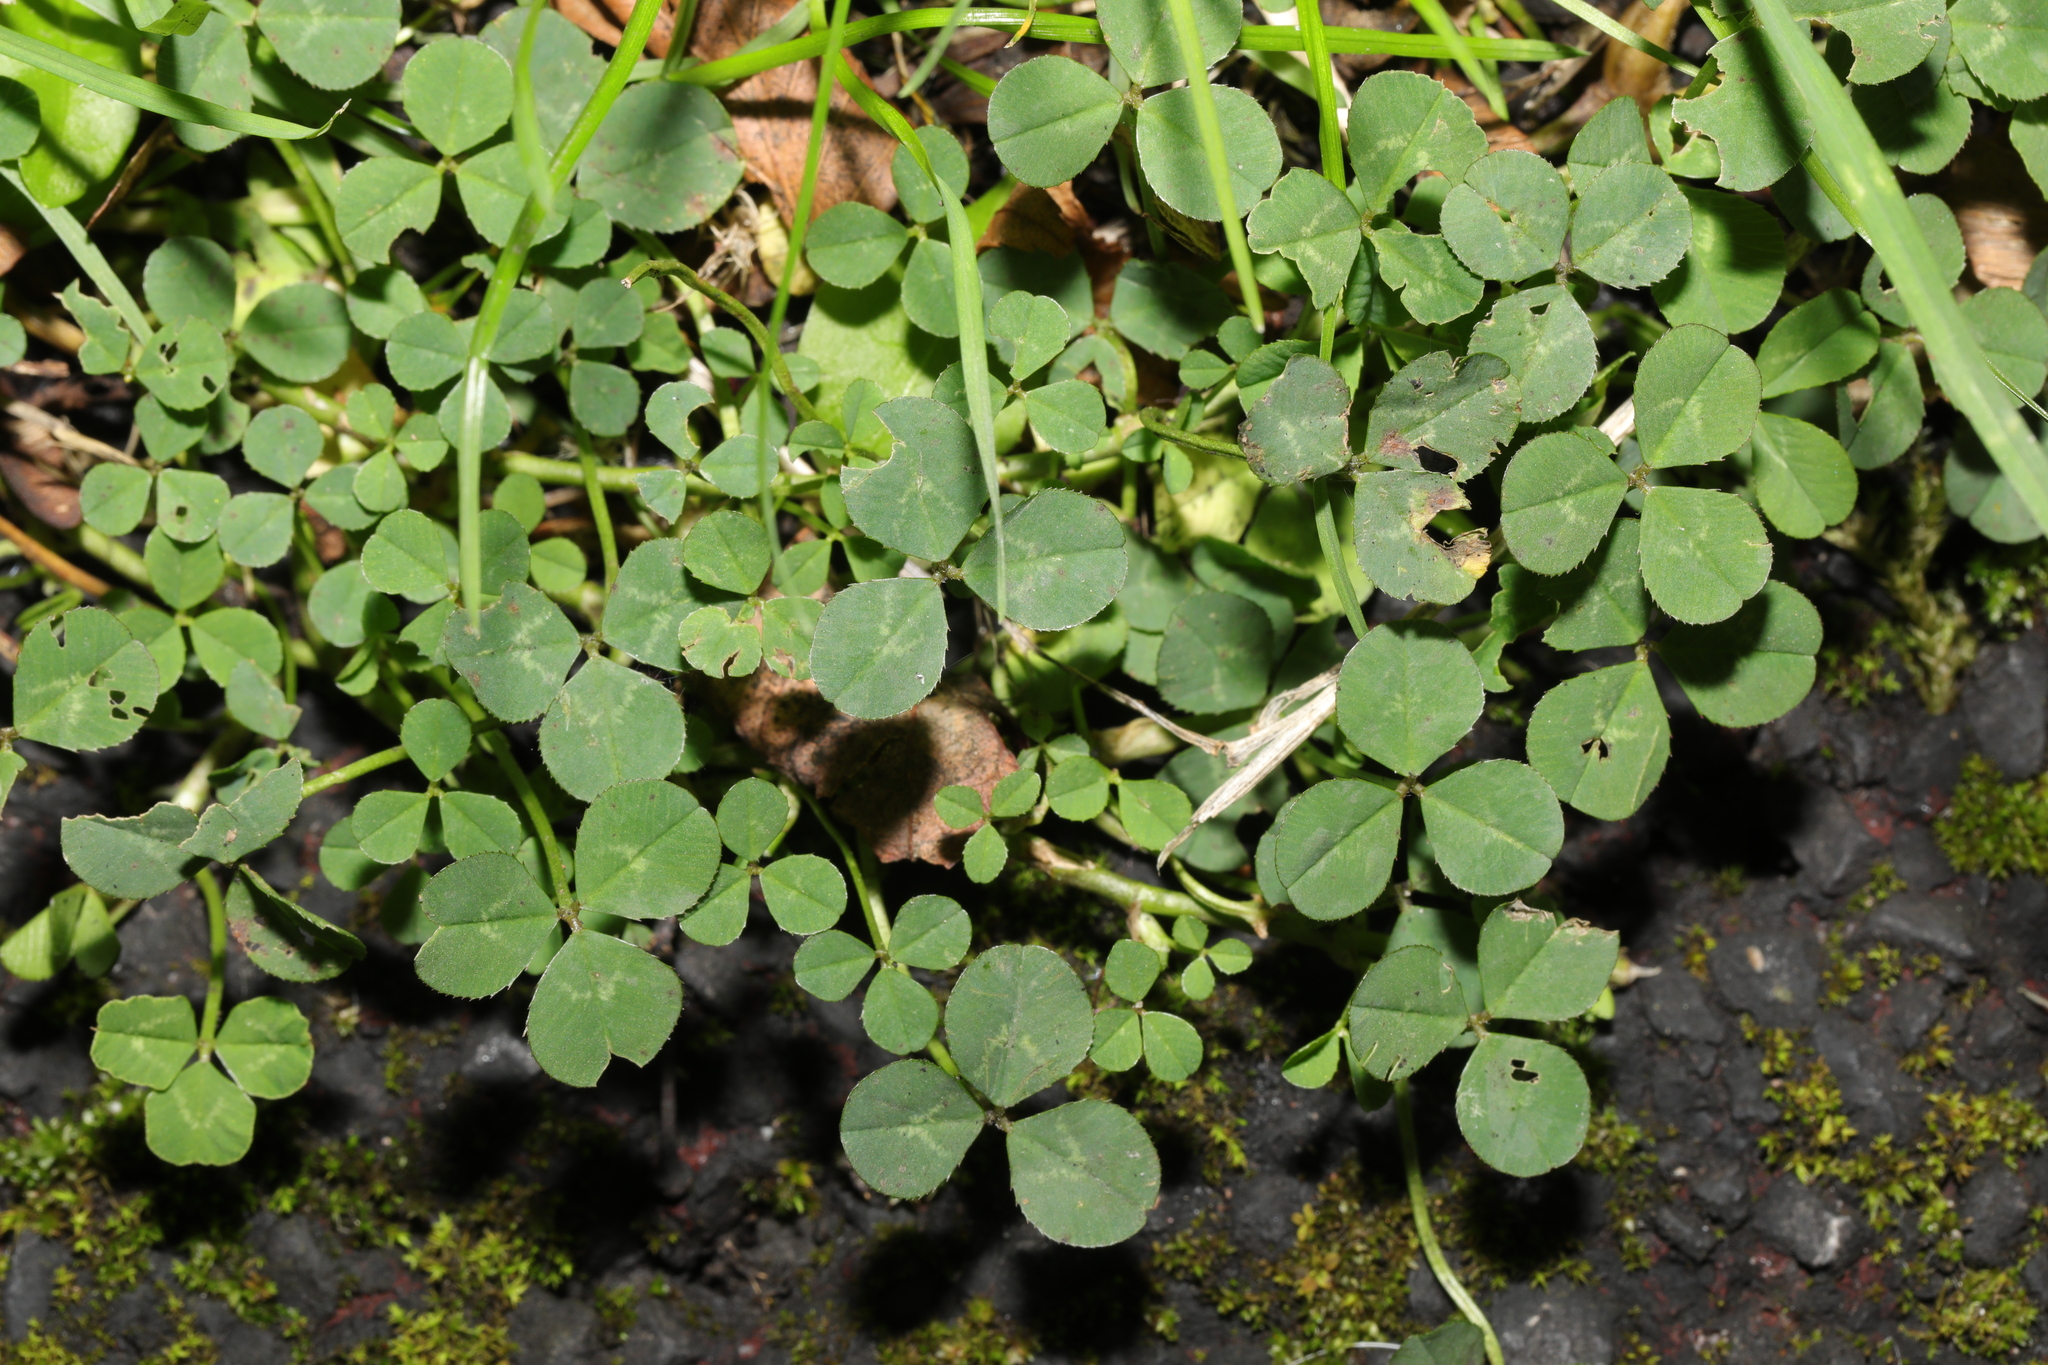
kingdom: Plantae
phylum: Tracheophyta
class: Magnoliopsida
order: Fabales
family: Fabaceae
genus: Trifolium
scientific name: Trifolium repens
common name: White clover
